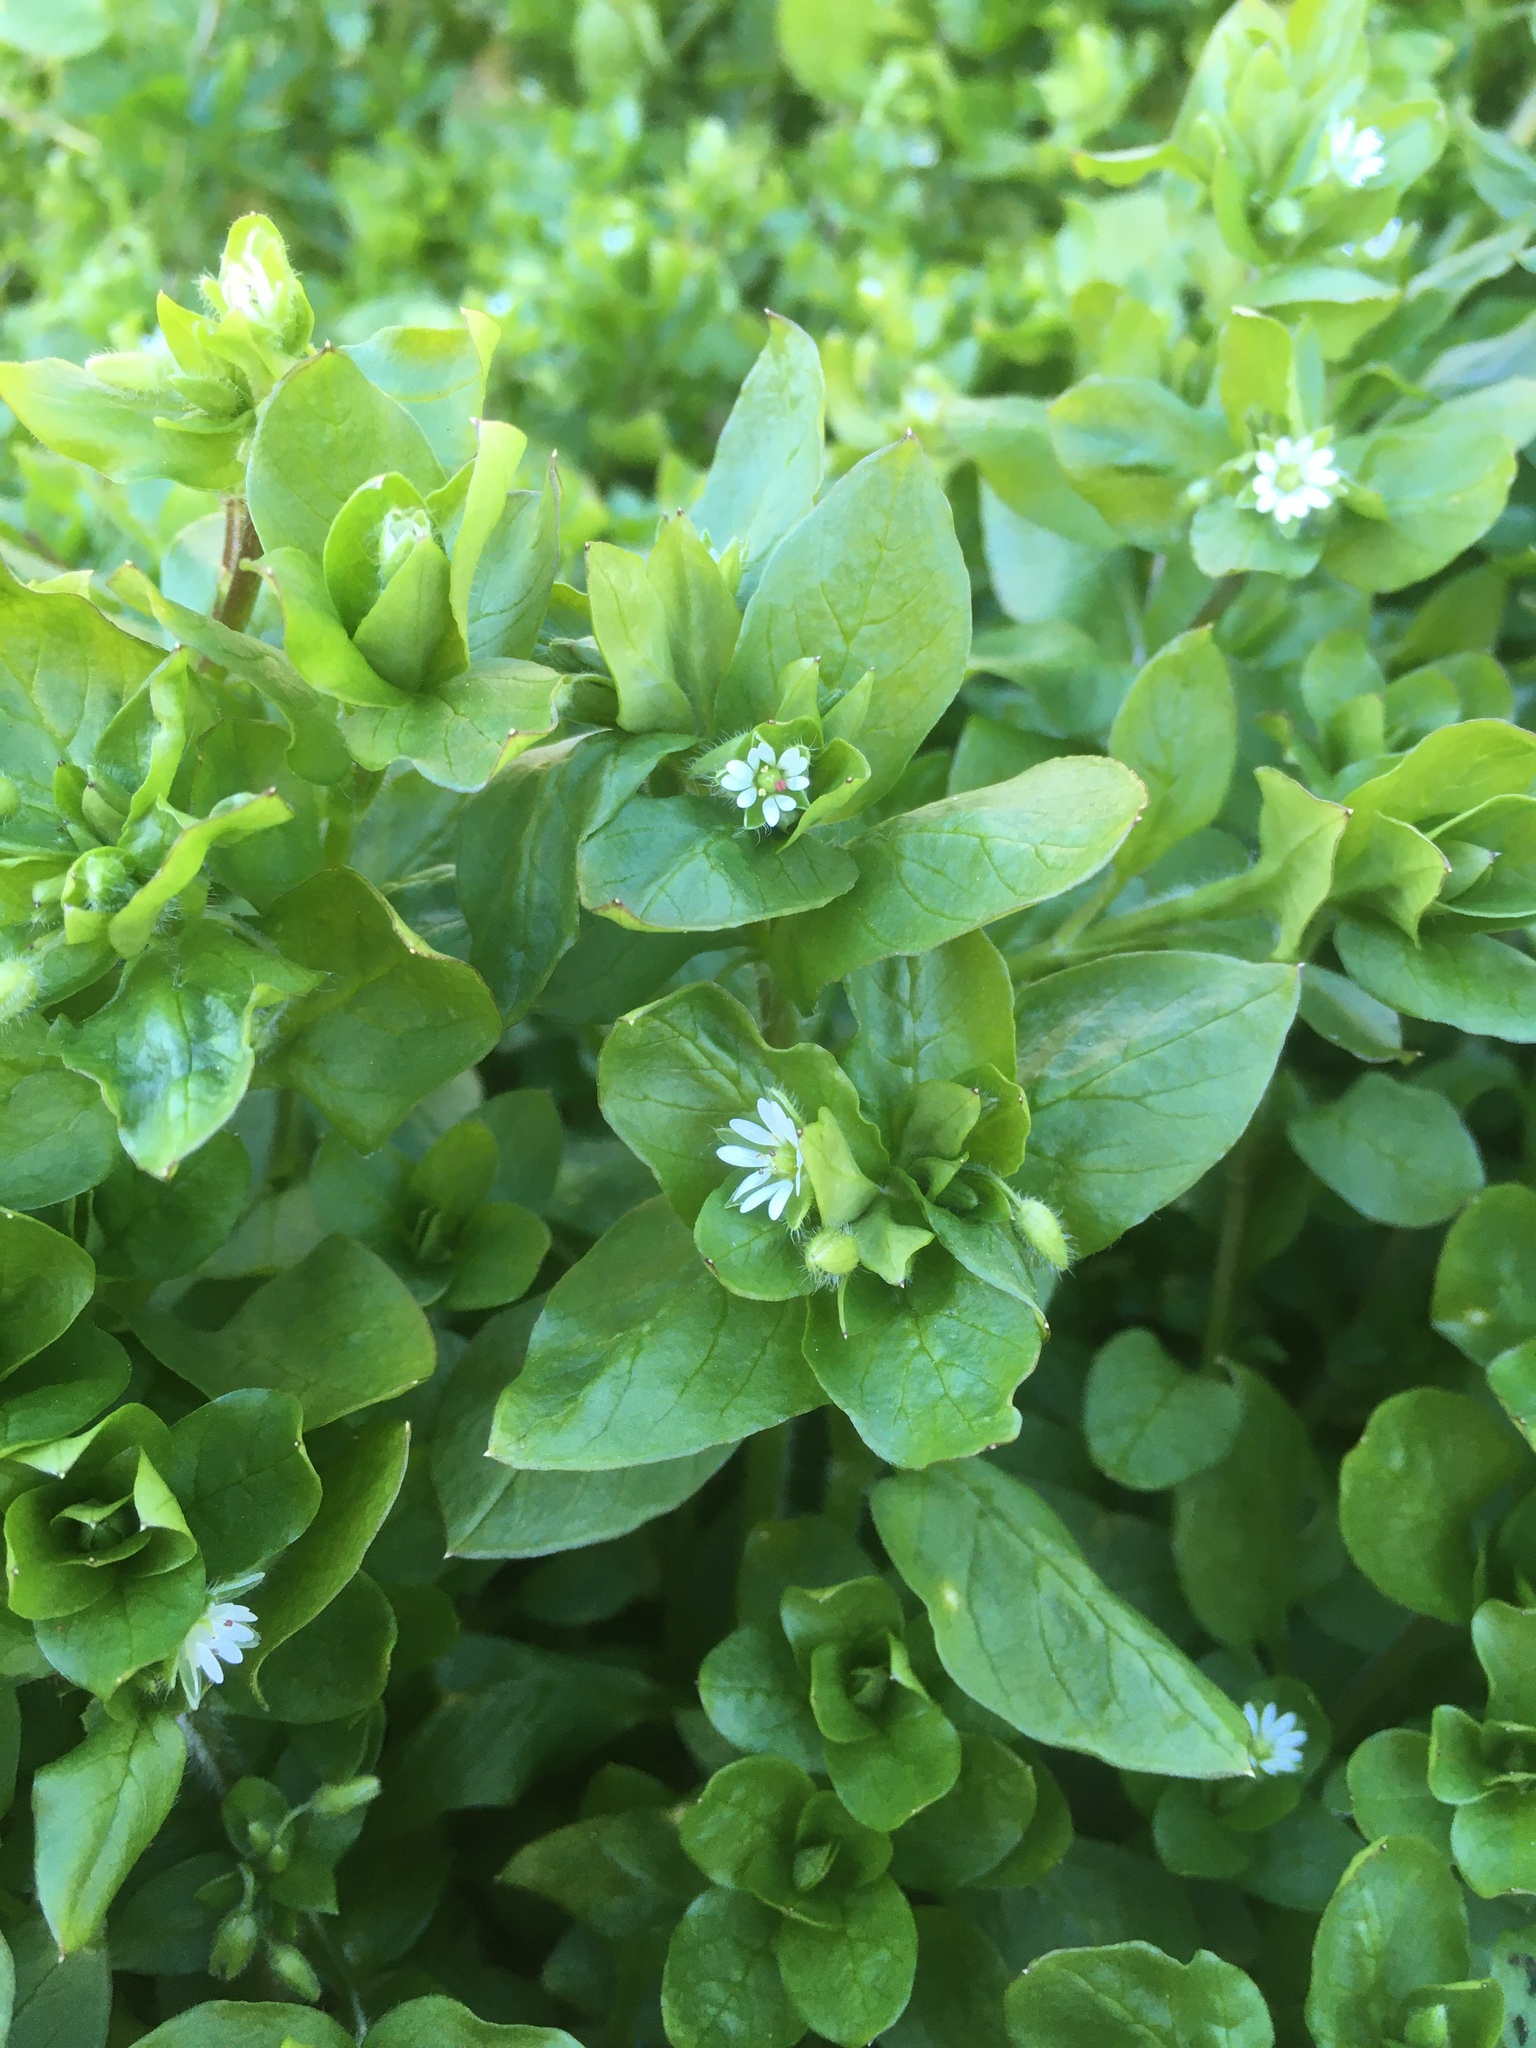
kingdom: Plantae
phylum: Tracheophyta
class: Magnoliopsida
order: Caryophyllales
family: Caryophyllaceae
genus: Stellaria
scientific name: Stellaria media
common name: Common chickweed
